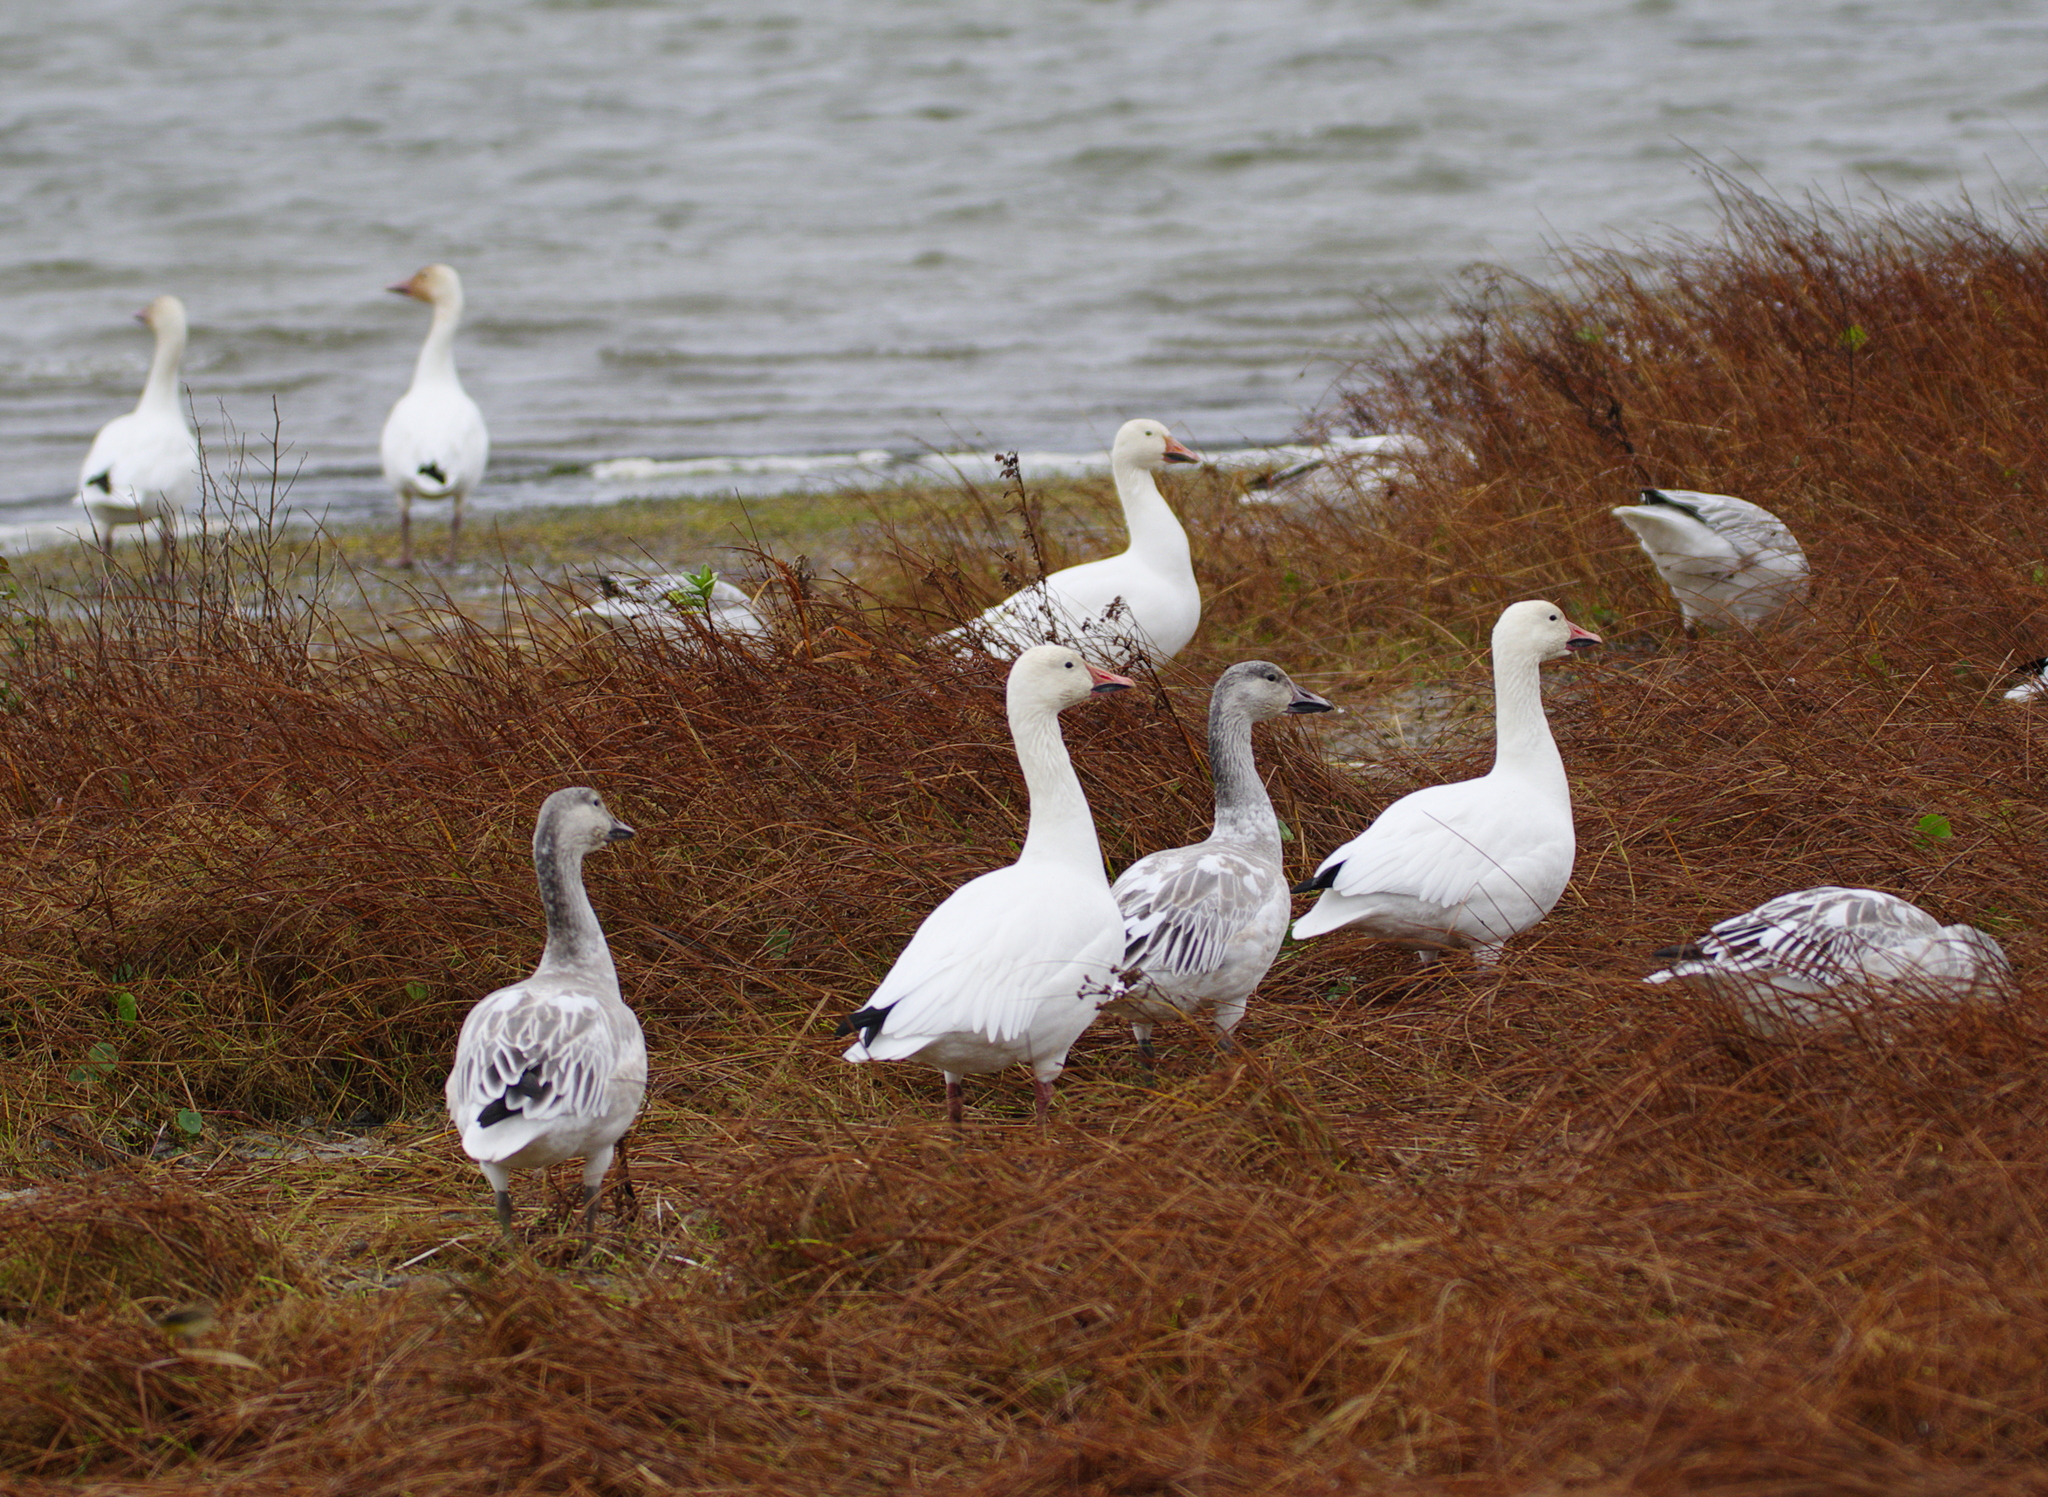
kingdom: Animalia
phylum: Chordata
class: Aves
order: Anseriformes
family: Anatidae
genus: Anser
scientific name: Anser caerulescens
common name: Snow goose
